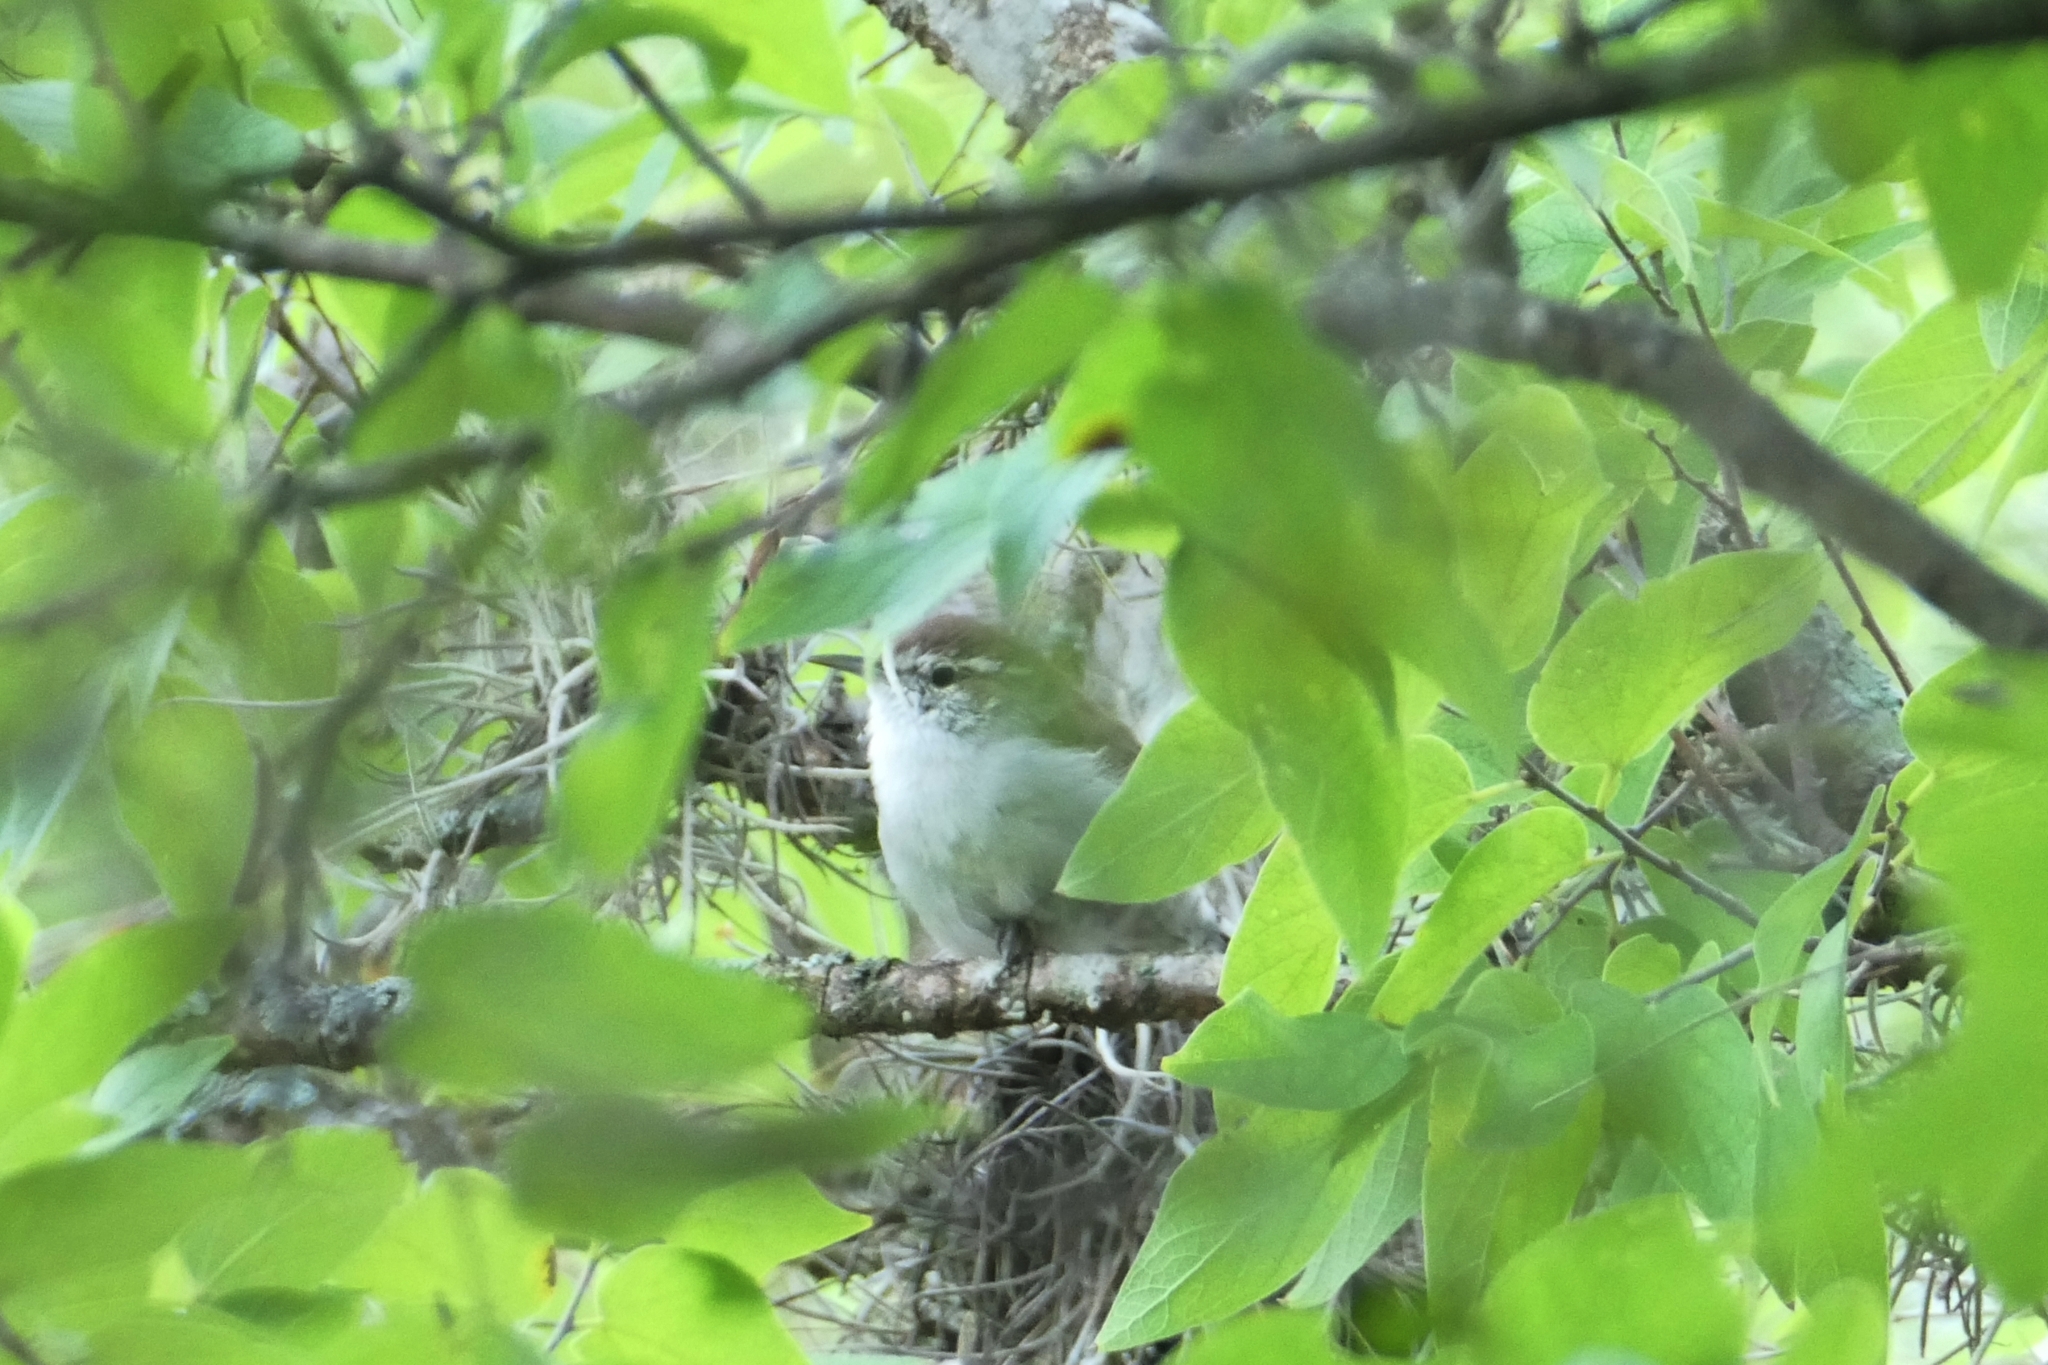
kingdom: Animalia
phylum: Chordata
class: Aves
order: Passeriformes
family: Troglodytidae
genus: Thryomanes
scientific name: Thryomanes bewickii
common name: Bewick's wren
